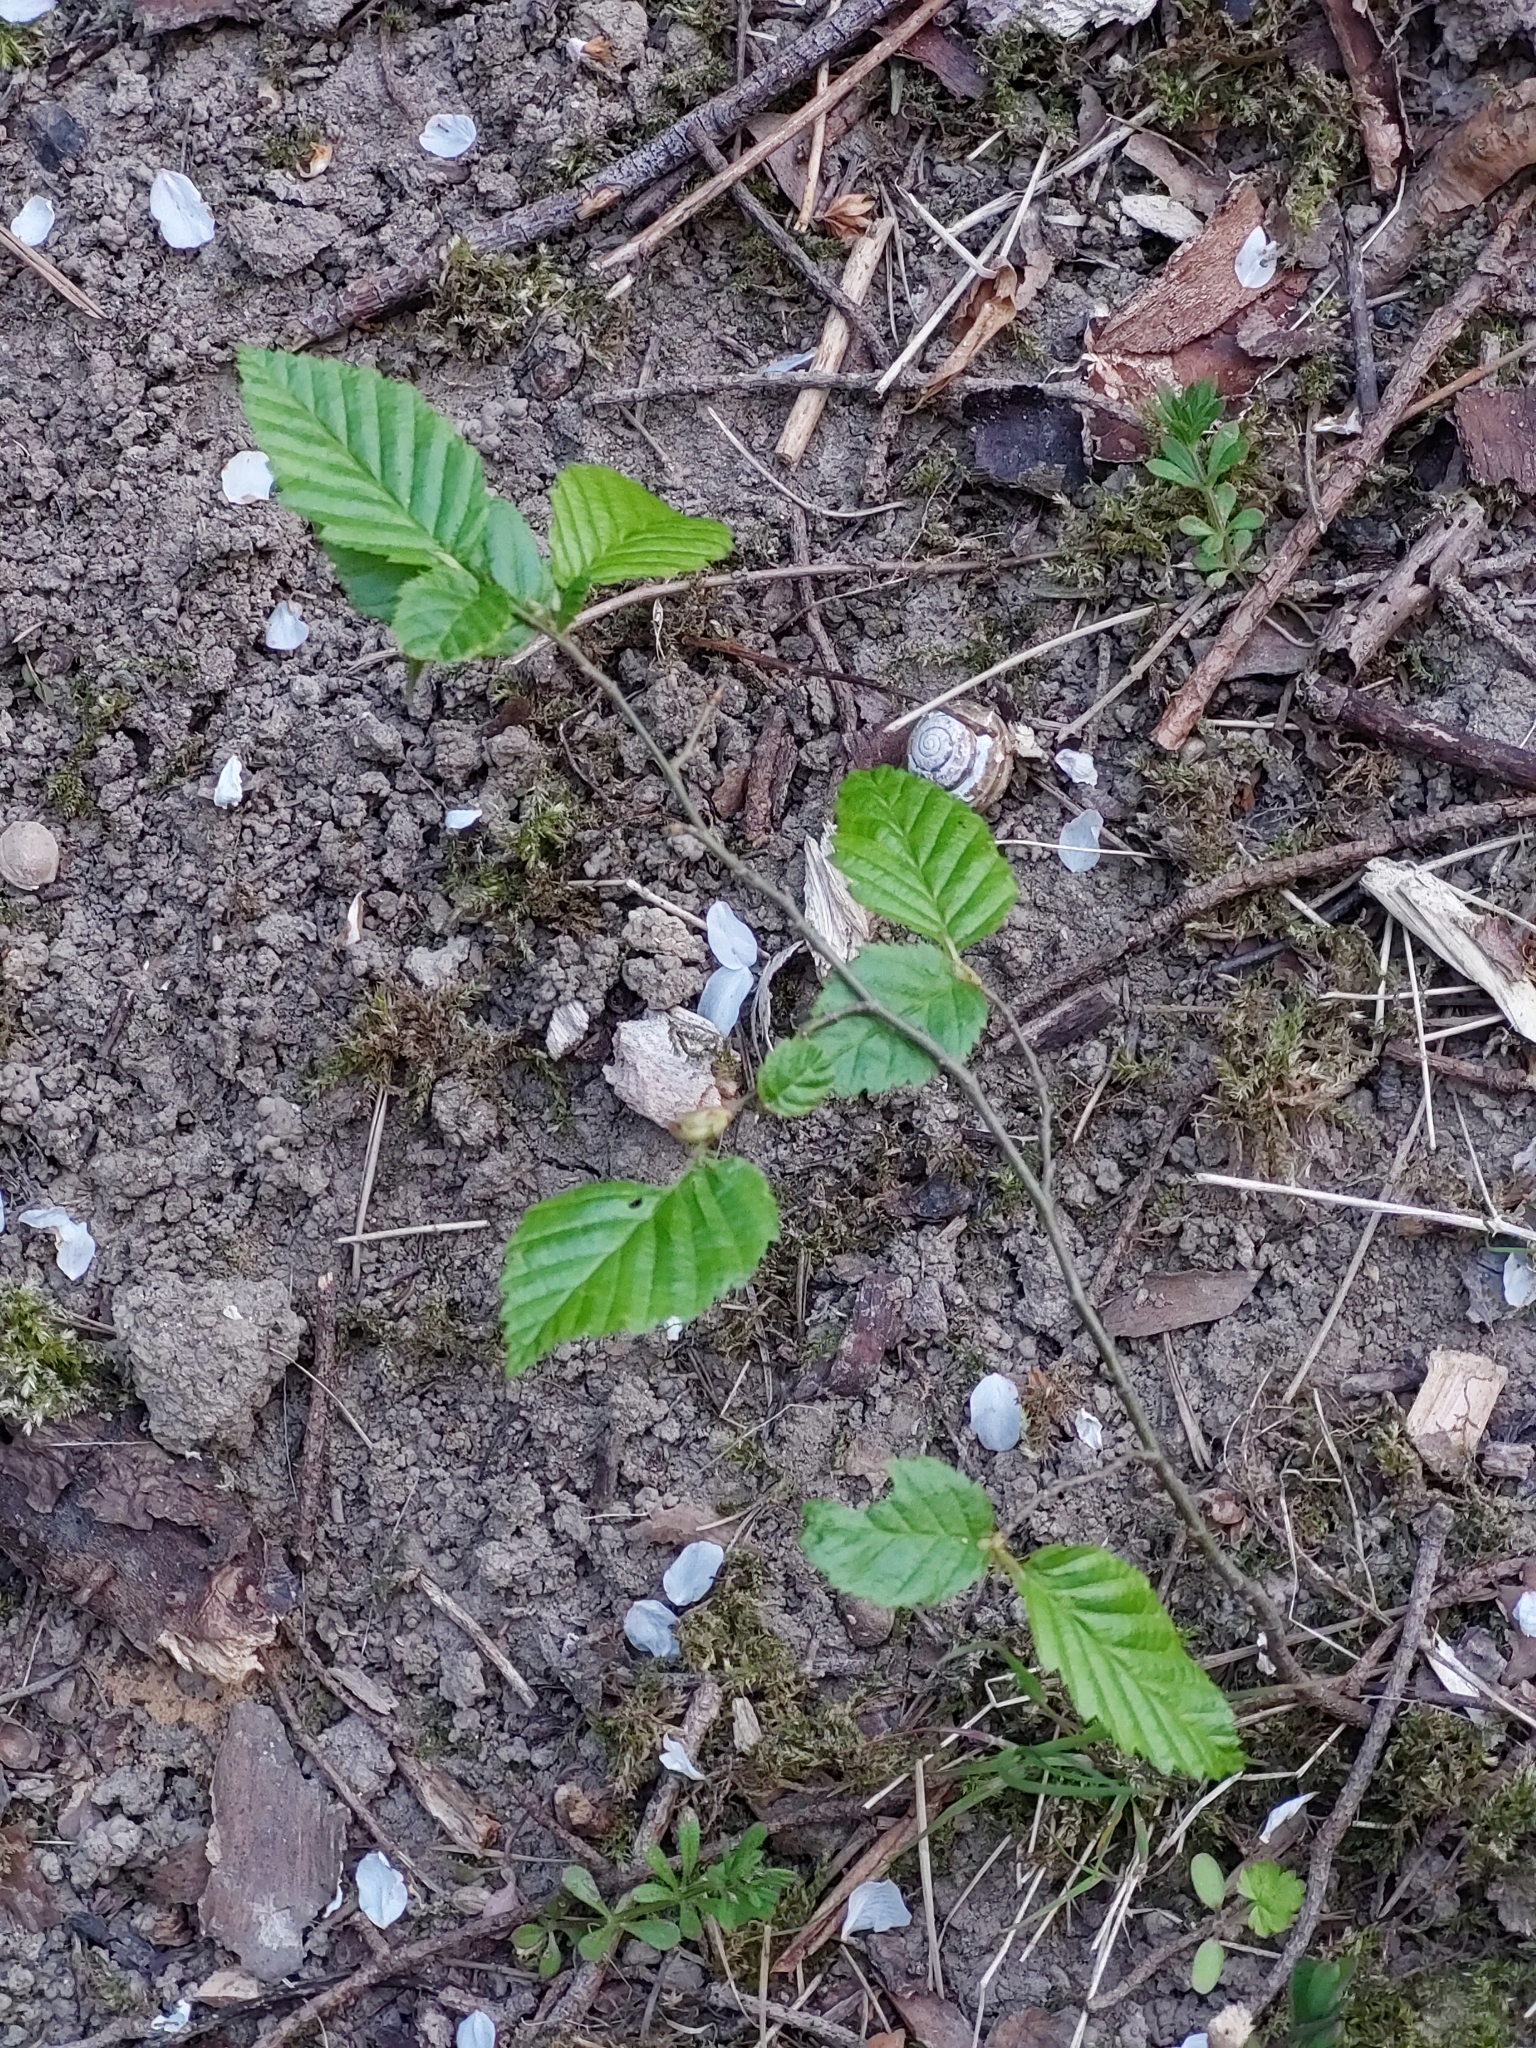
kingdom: Plantae
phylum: Tracheophyta
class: Magnoliopsida
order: Fagales
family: Betulaceae
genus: Carpinus
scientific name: Carpinus betulus
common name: Hornbeam
